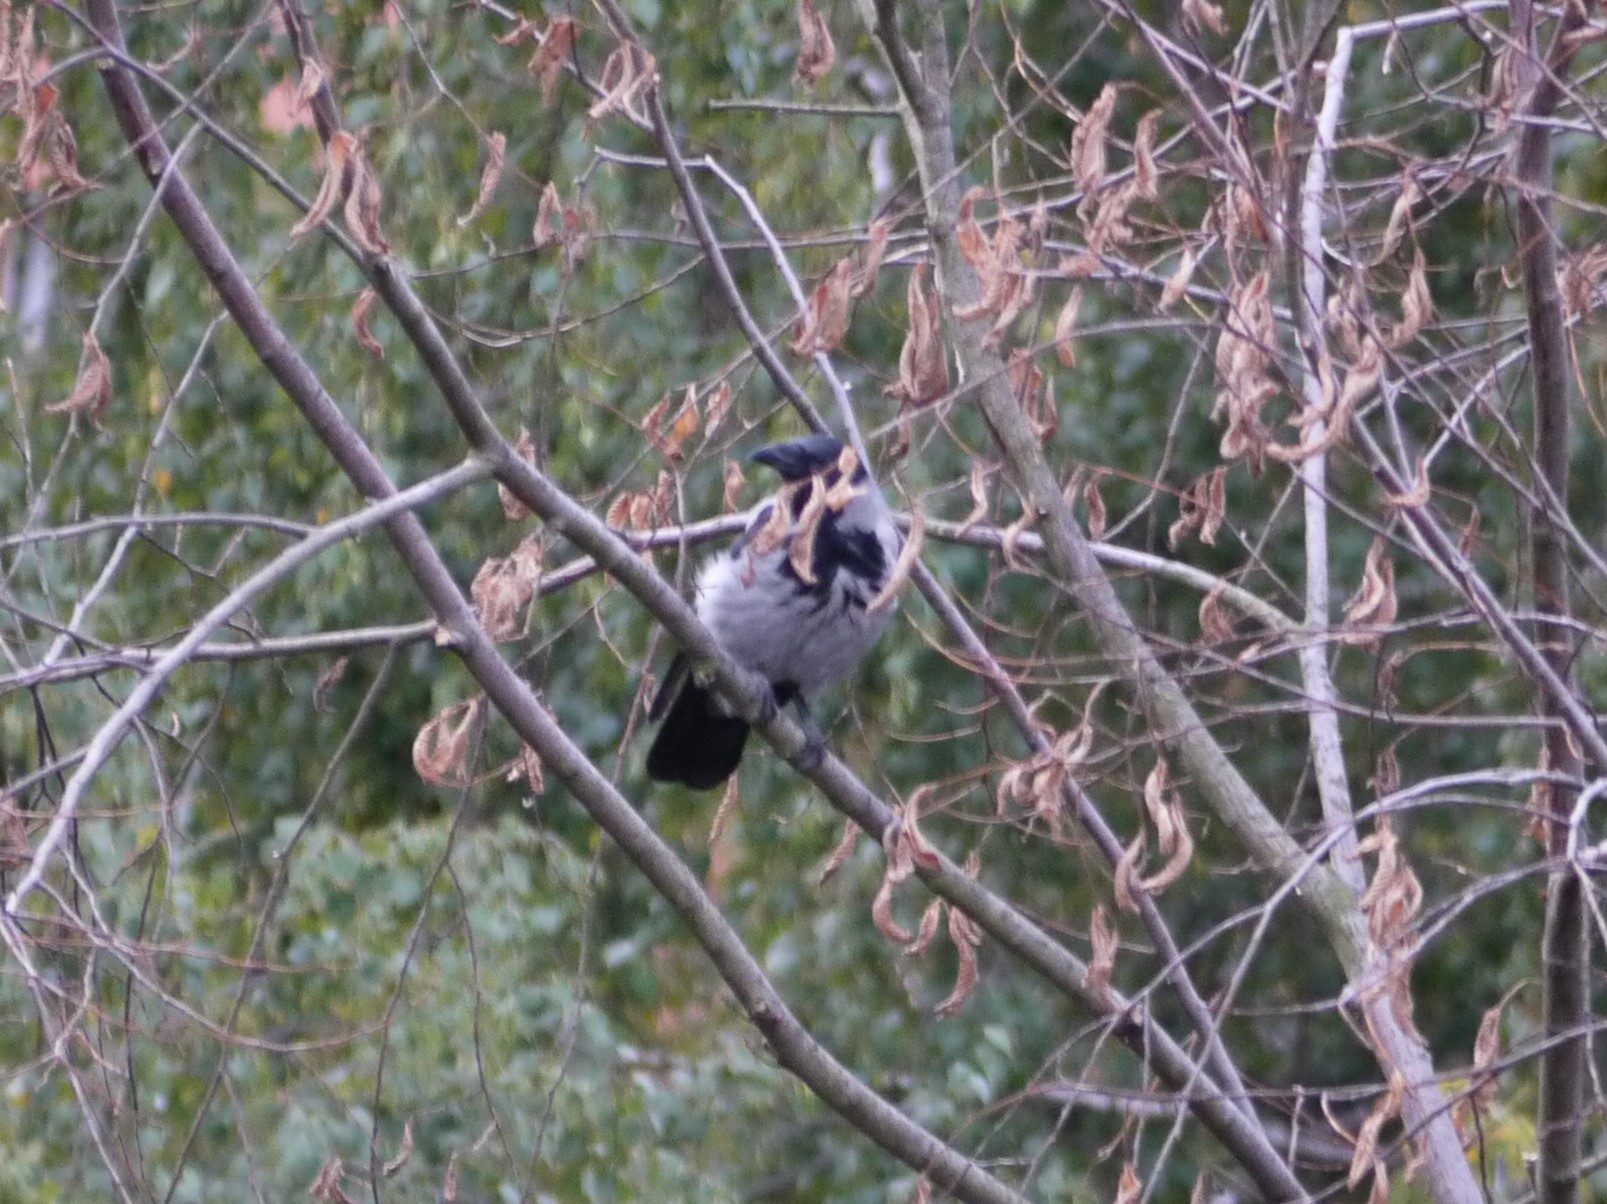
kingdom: Animalia
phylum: Chordata
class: Aves
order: Passeriformes
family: Corvidae
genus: Corvus
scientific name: Corvus cornix
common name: Hooded crow
